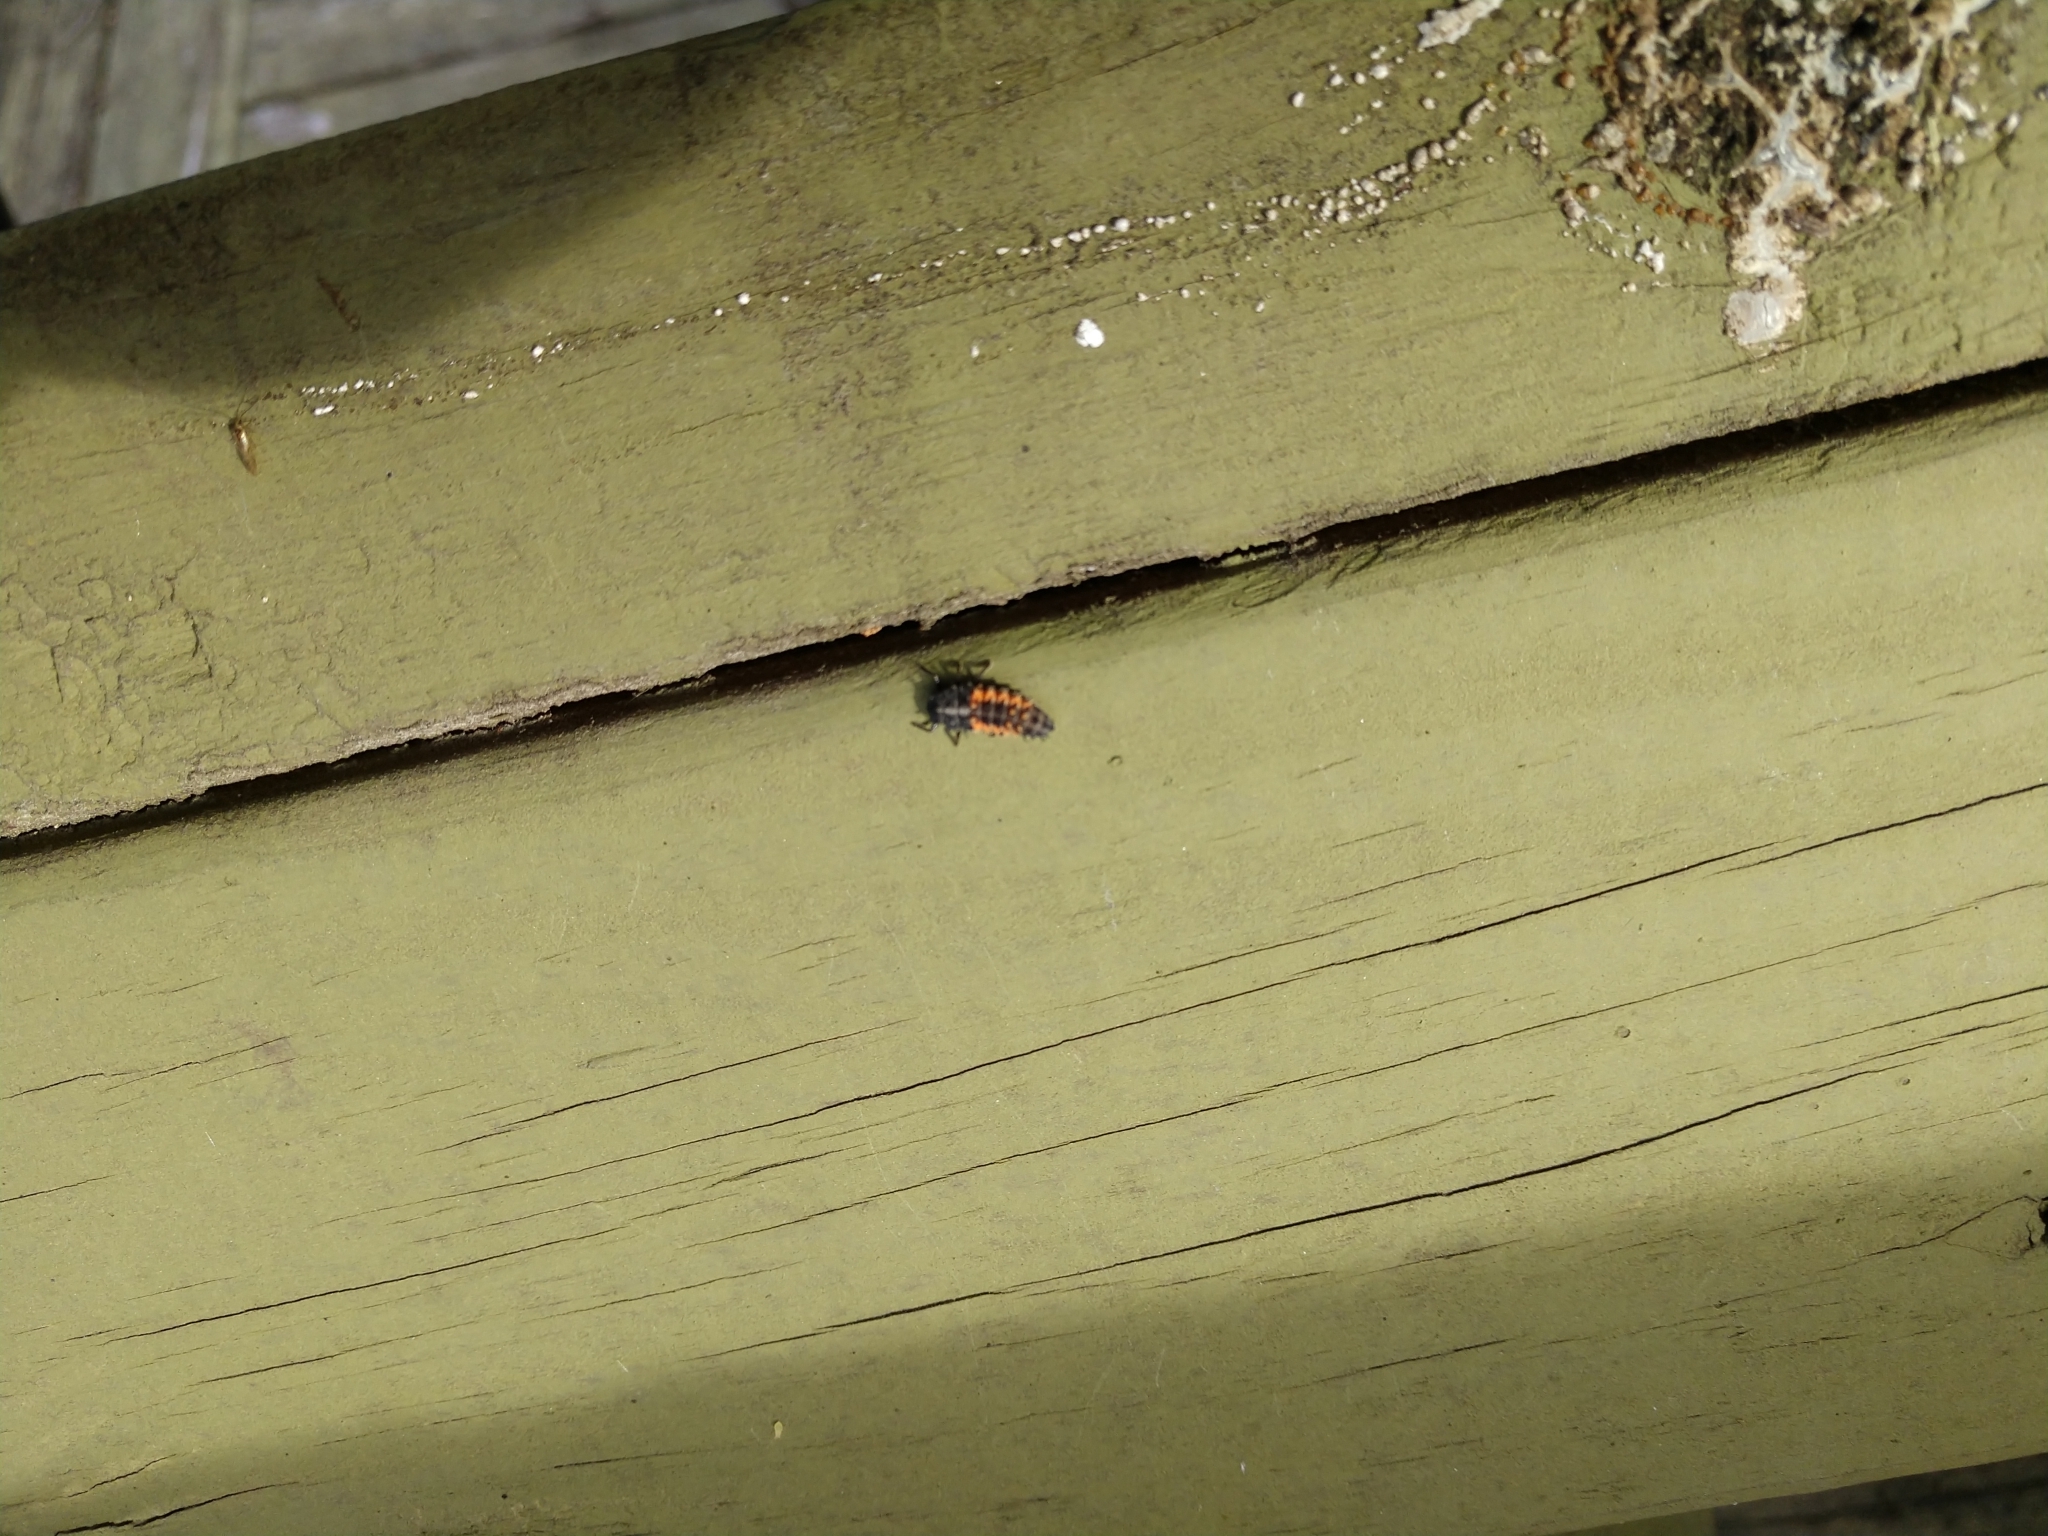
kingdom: Animalia
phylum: Arthropoda
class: Insecta
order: Coleoptera
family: Coccinellidae
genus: Harmonia
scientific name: Harmonia axyridis
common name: Harlequin ladybird
